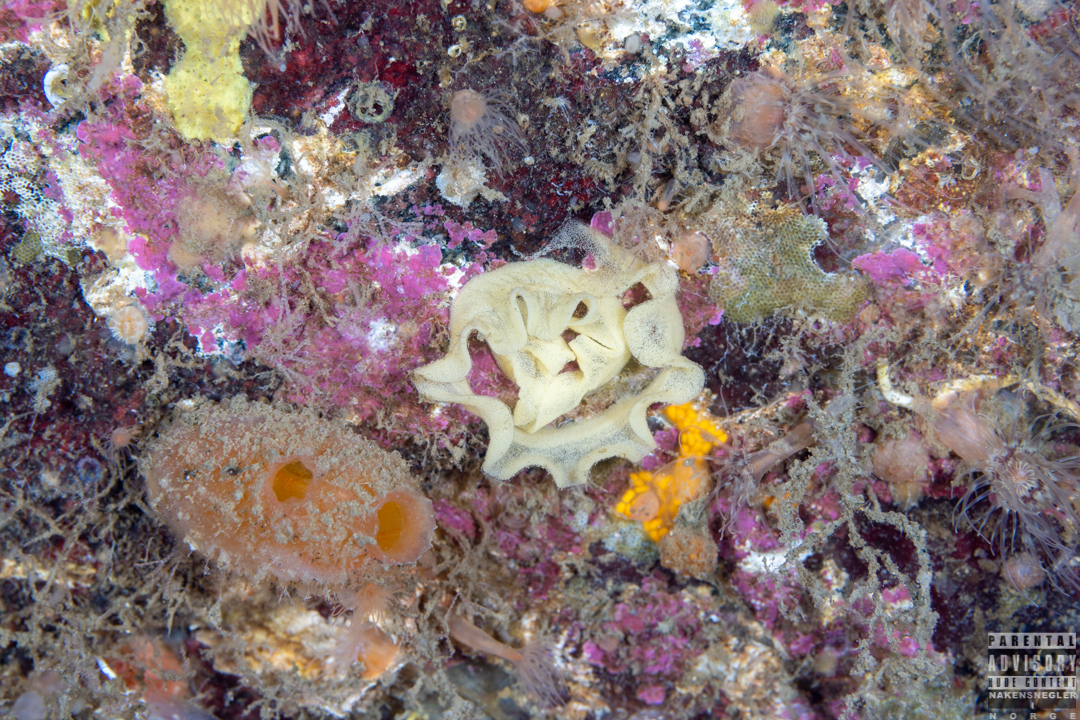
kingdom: Animalia
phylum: Mollusca
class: Gastropoda
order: Nudibranchia
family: Discodorididae
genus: Jorunna
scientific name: Jorunna tomentosa
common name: Grey sea slug
